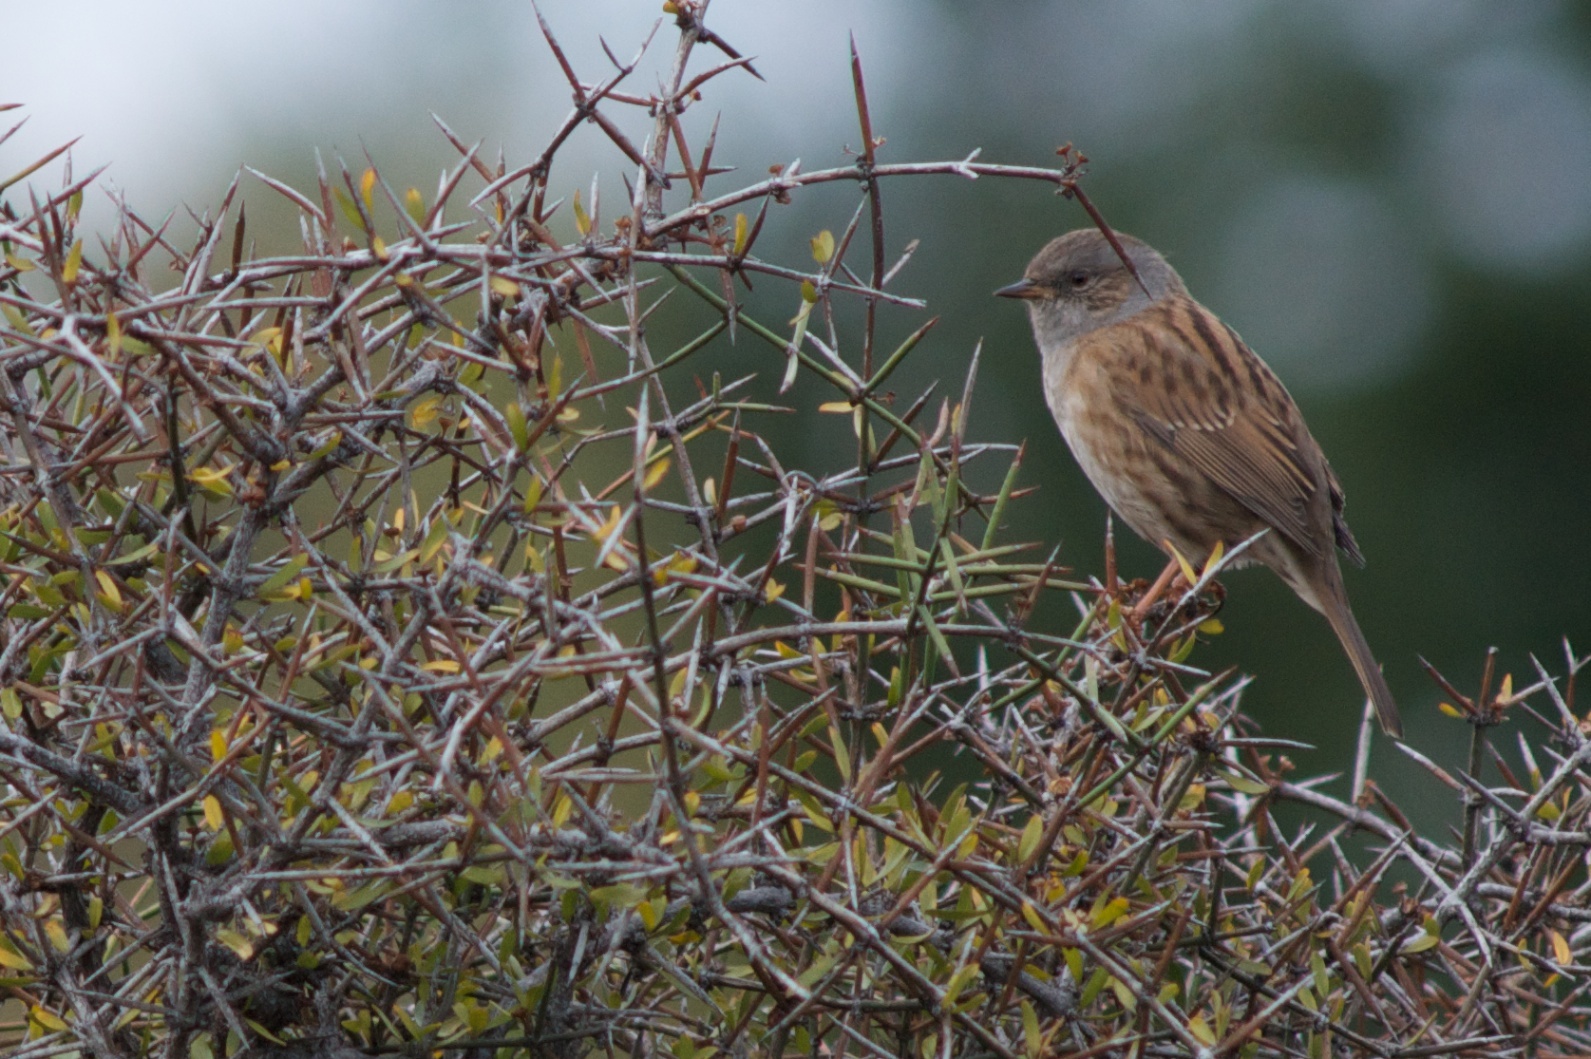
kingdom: Animalia
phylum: Chordata
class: Aves
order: Passeriformes
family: Prunellidae
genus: Prunella
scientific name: Prunella modularis
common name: Dunnock
